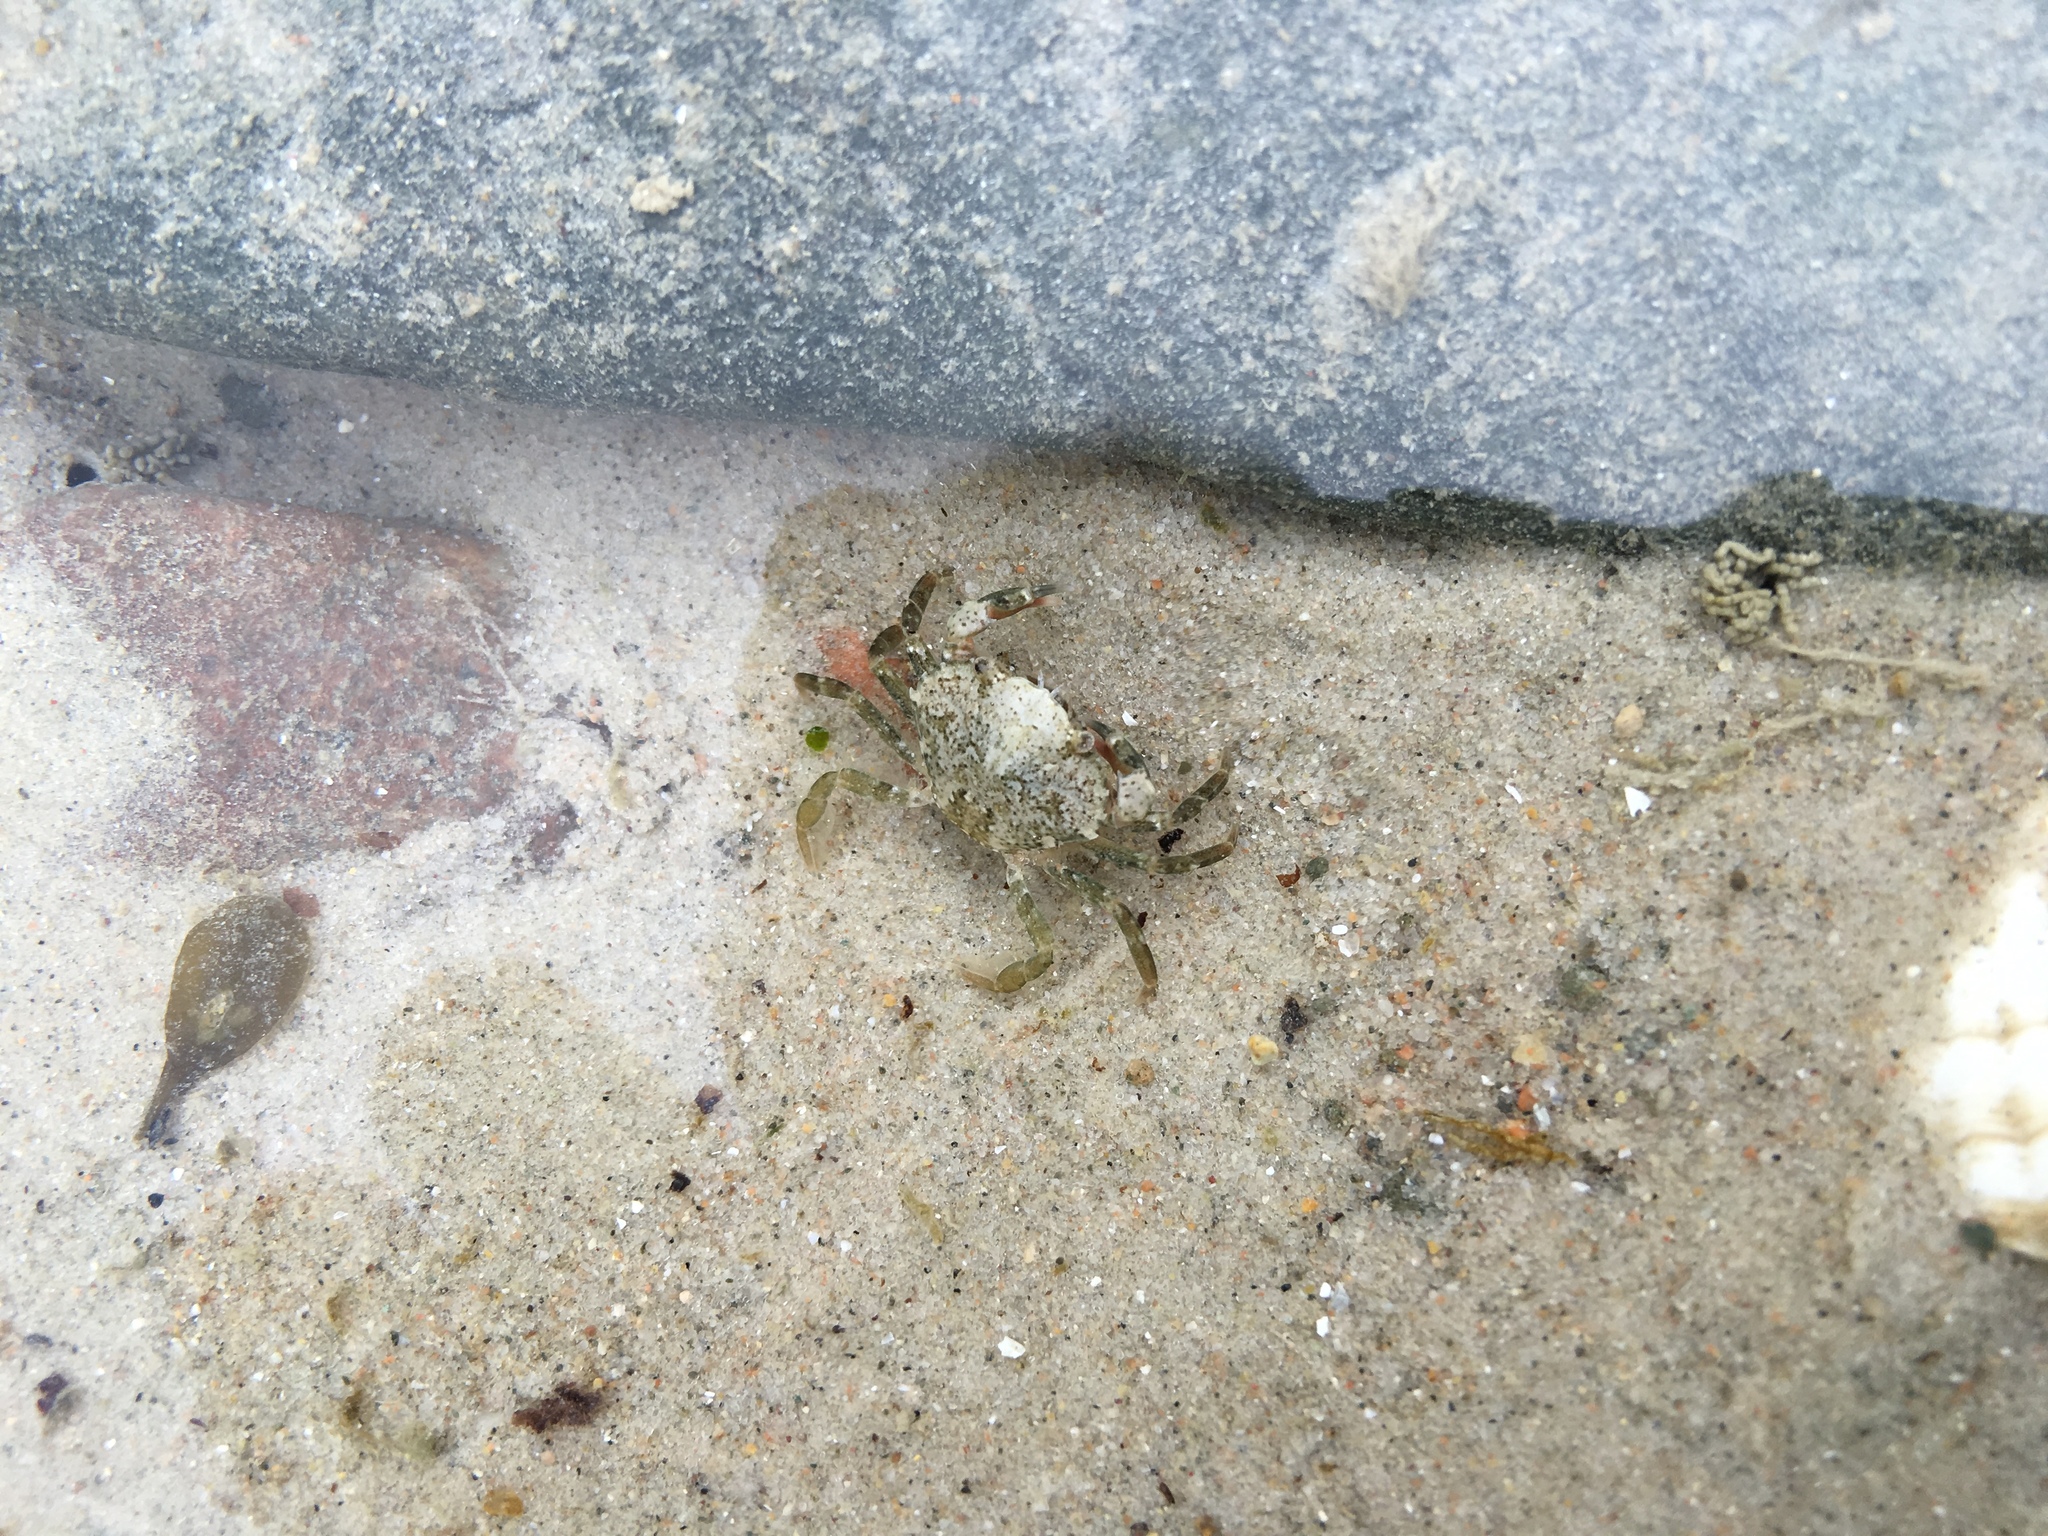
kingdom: Animalia
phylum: Arthropoda
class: Malacostraca
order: Decapoda
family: Carcinidae
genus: Carcinus
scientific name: Carcinus maenas
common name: European green crab
